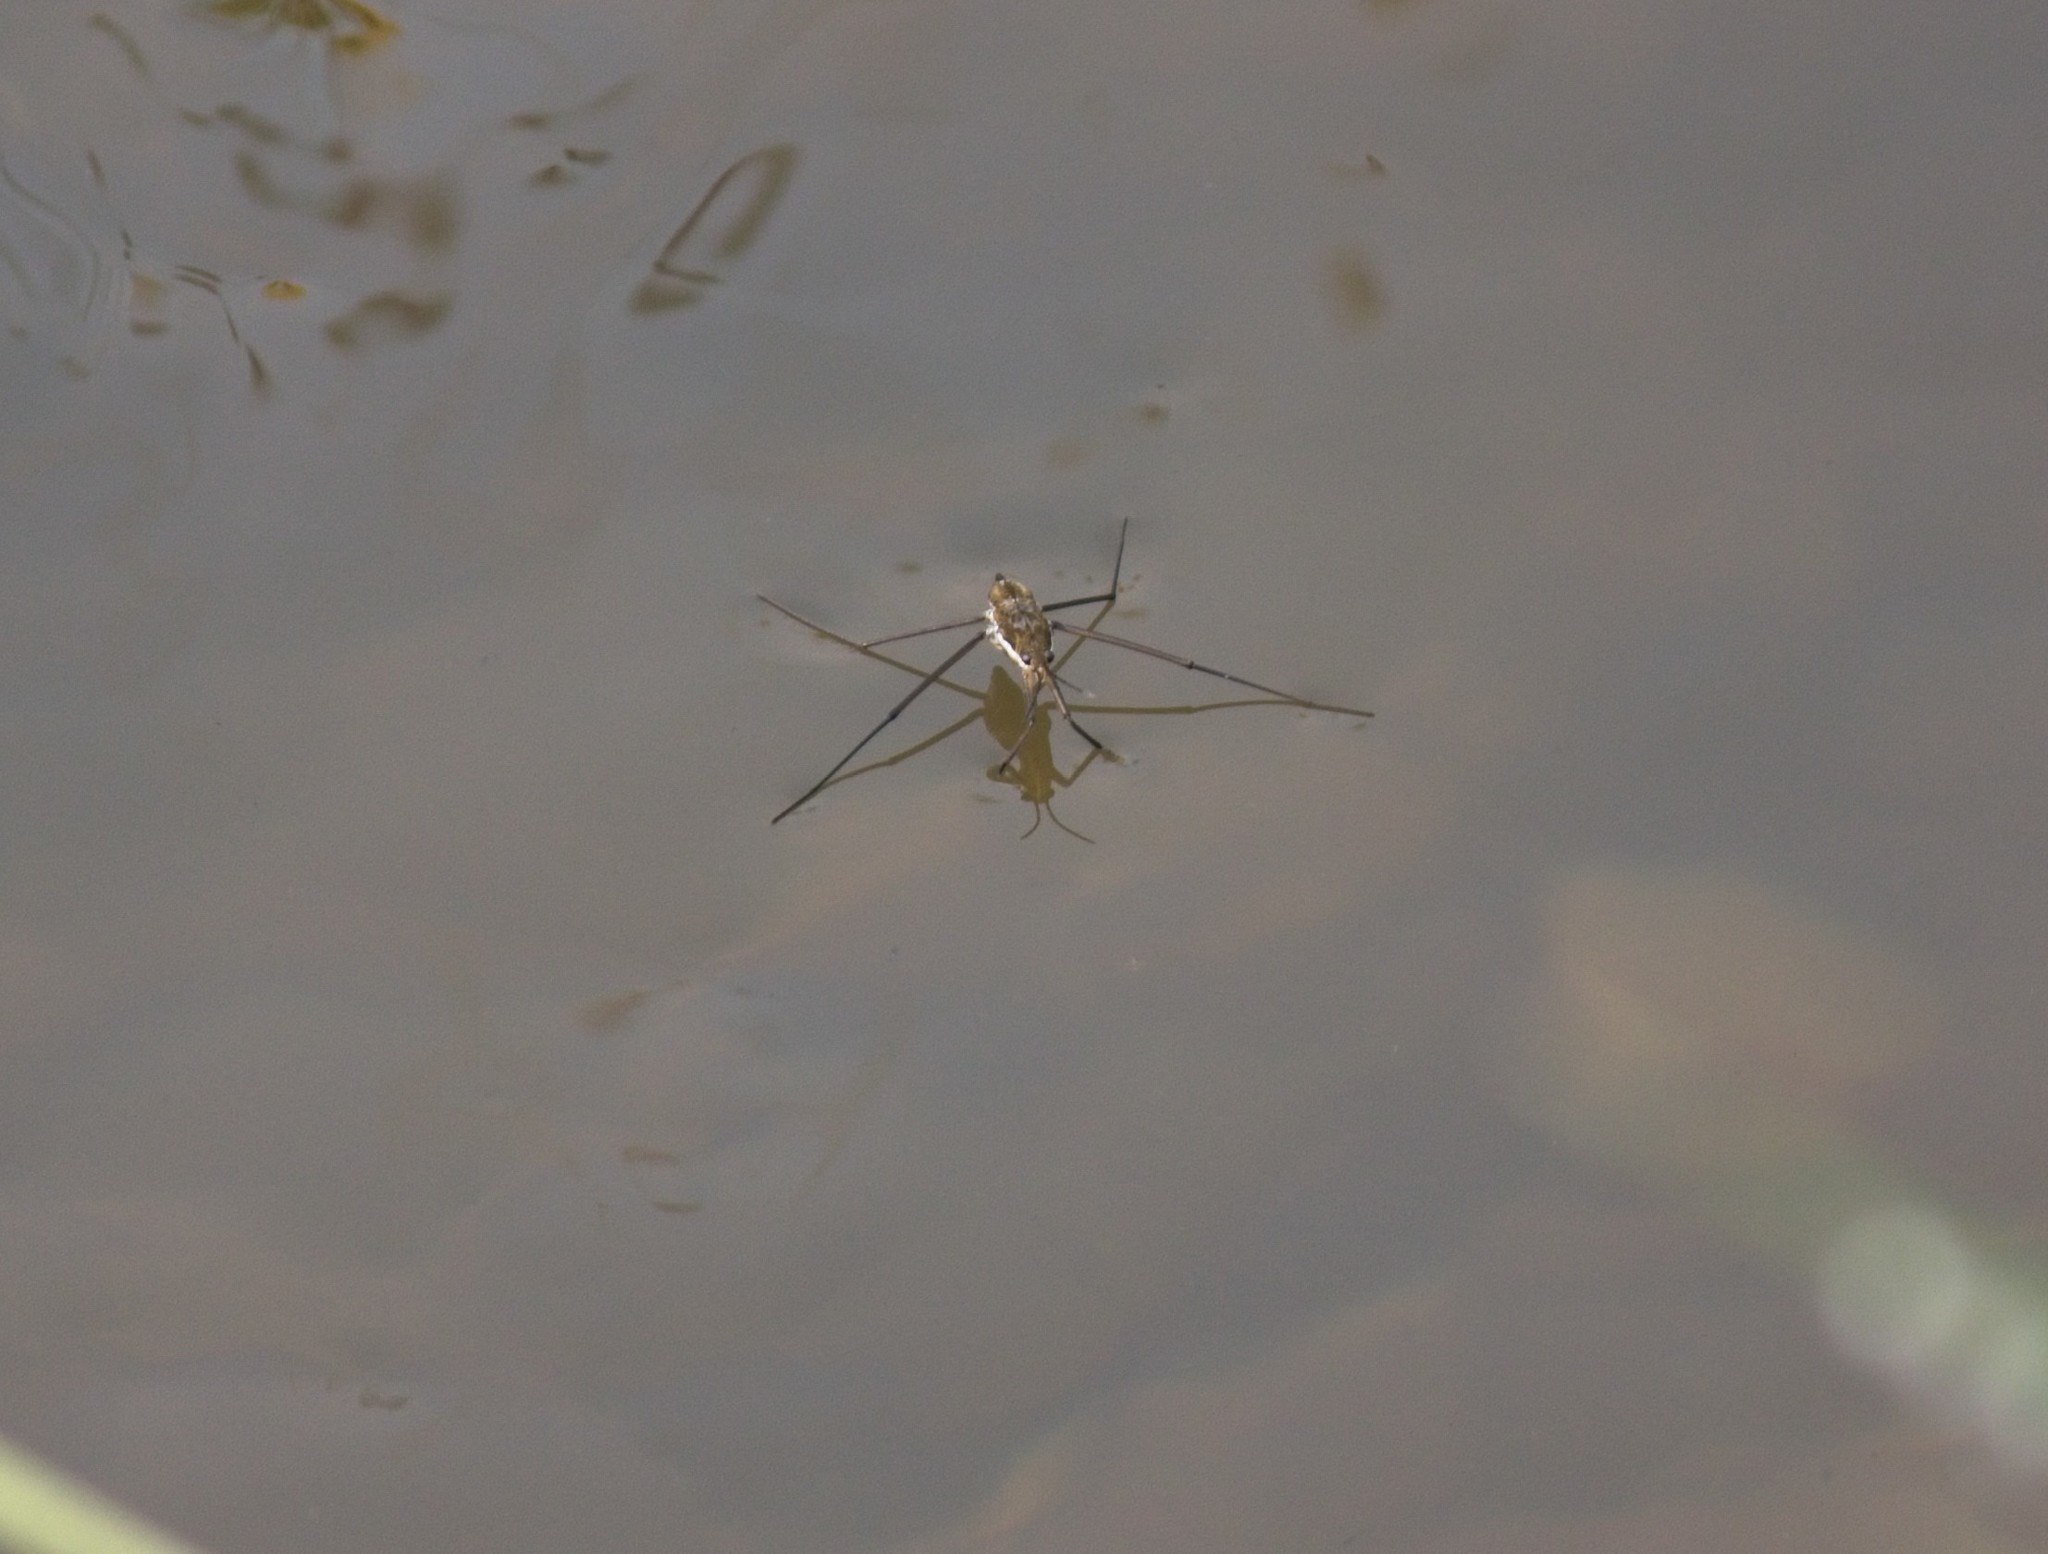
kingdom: Animalia
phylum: Arthropoda
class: Insecta
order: Hemiptera
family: Gerridae
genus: Aquarius
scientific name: Aquarius remigis
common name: Common water strider
